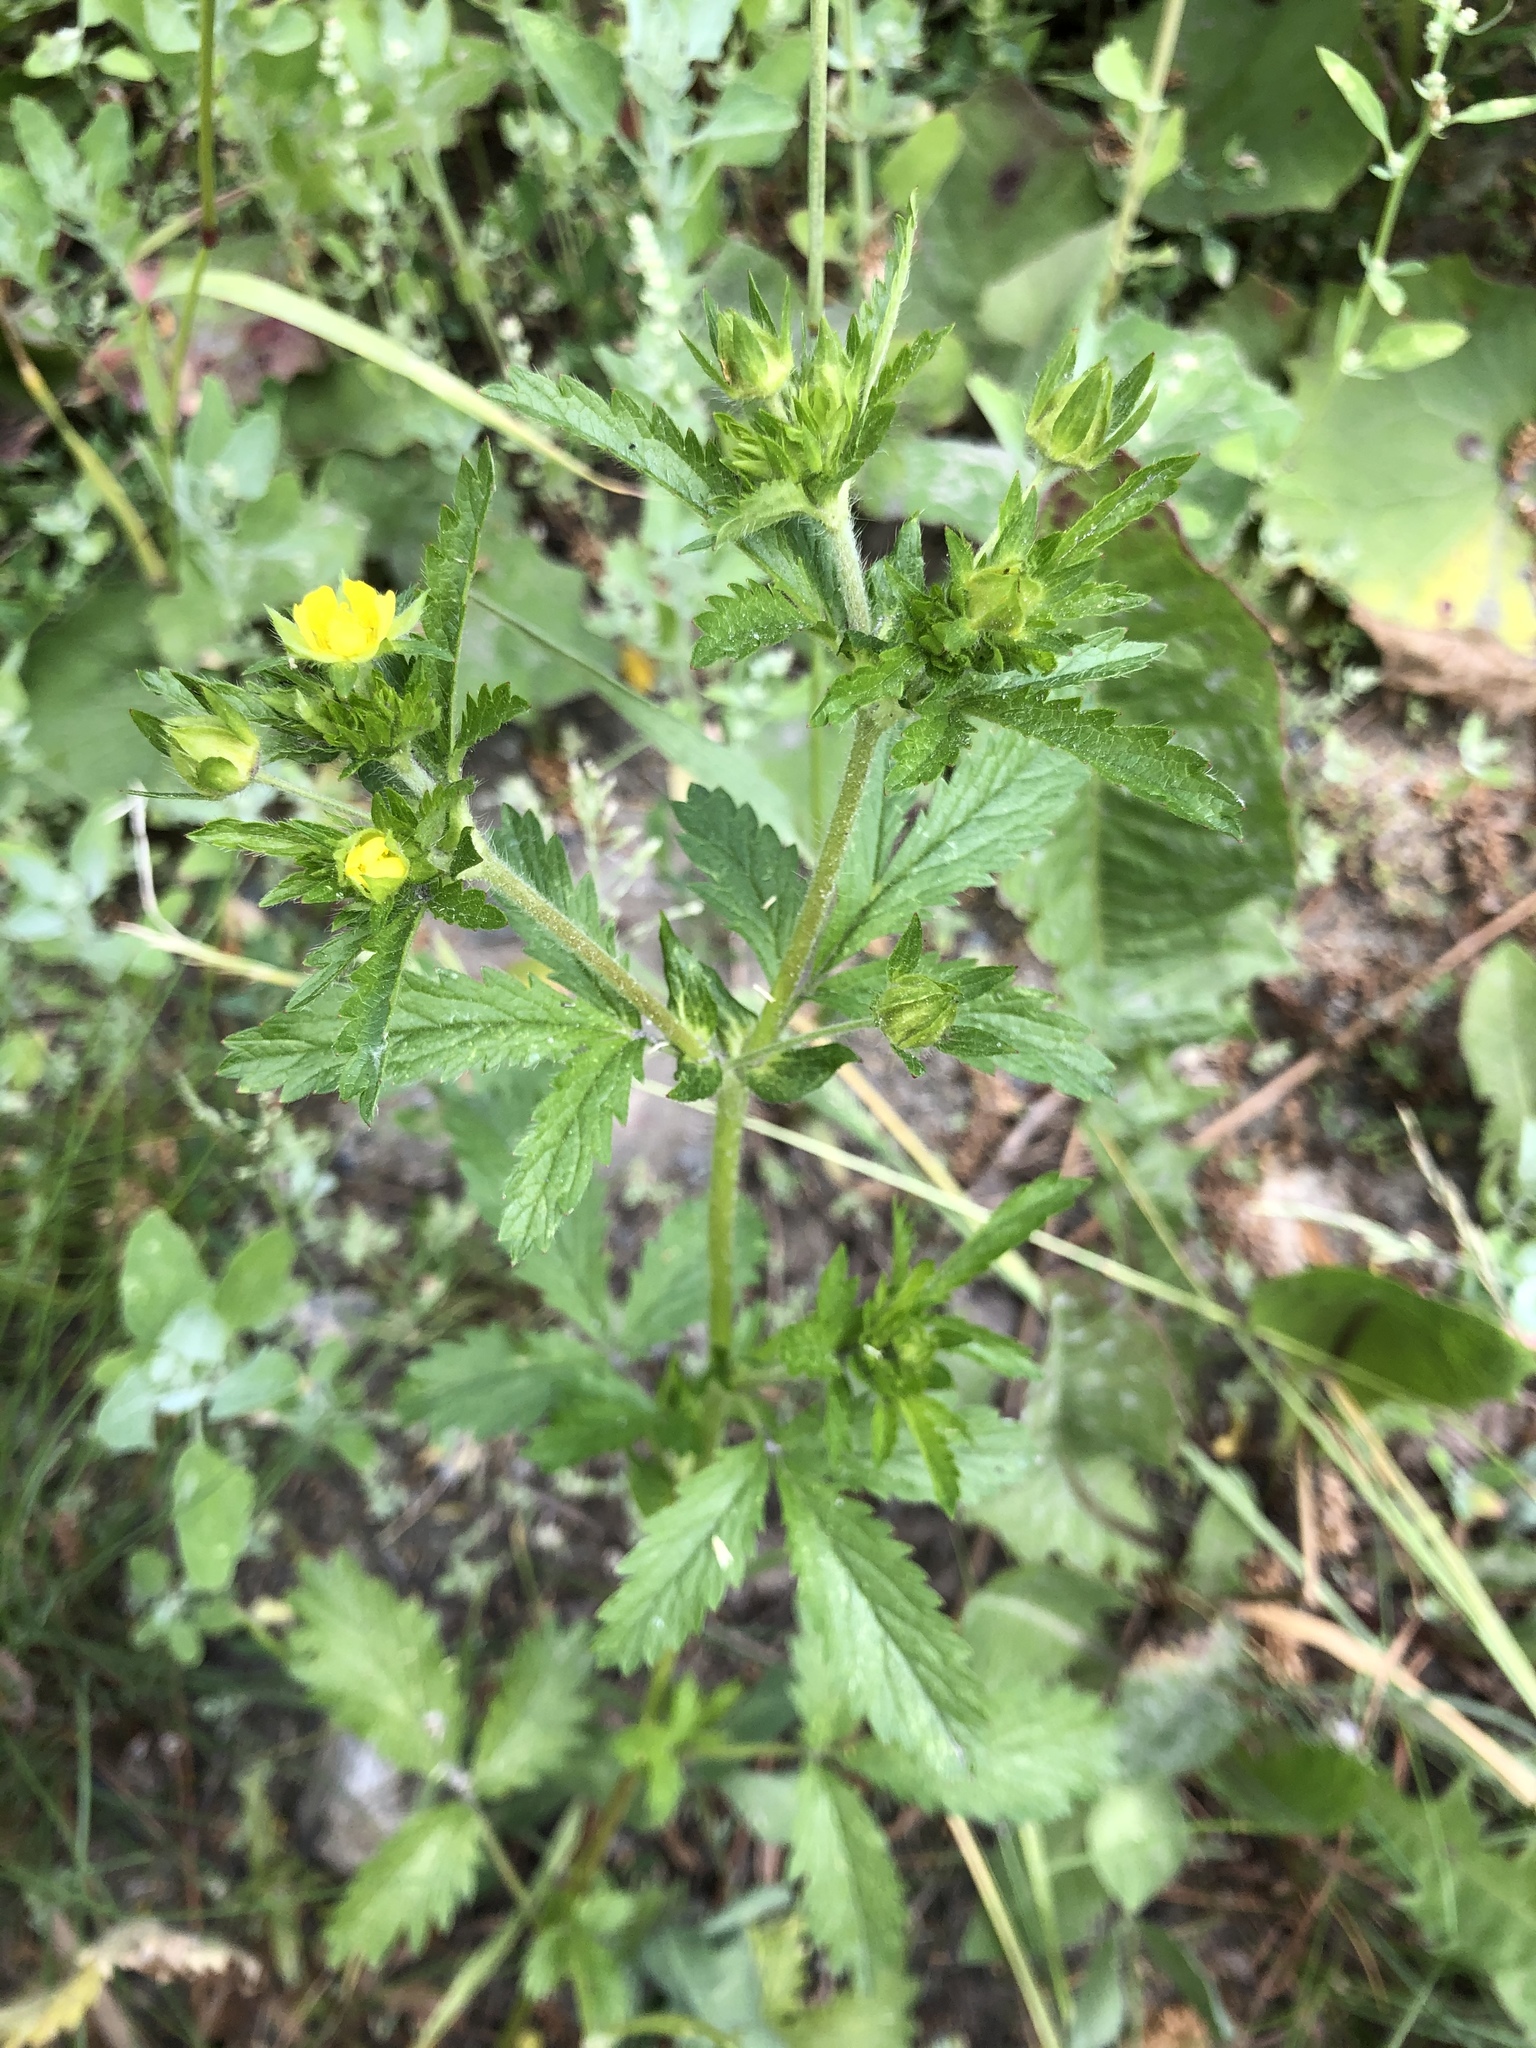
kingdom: Plantae
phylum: Tracheophyta
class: Magnoliopsida
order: Rosales
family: Rosaceae
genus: Potentilla
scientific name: Potentilla norvegica
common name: Ternate-leaved cinquefoil
